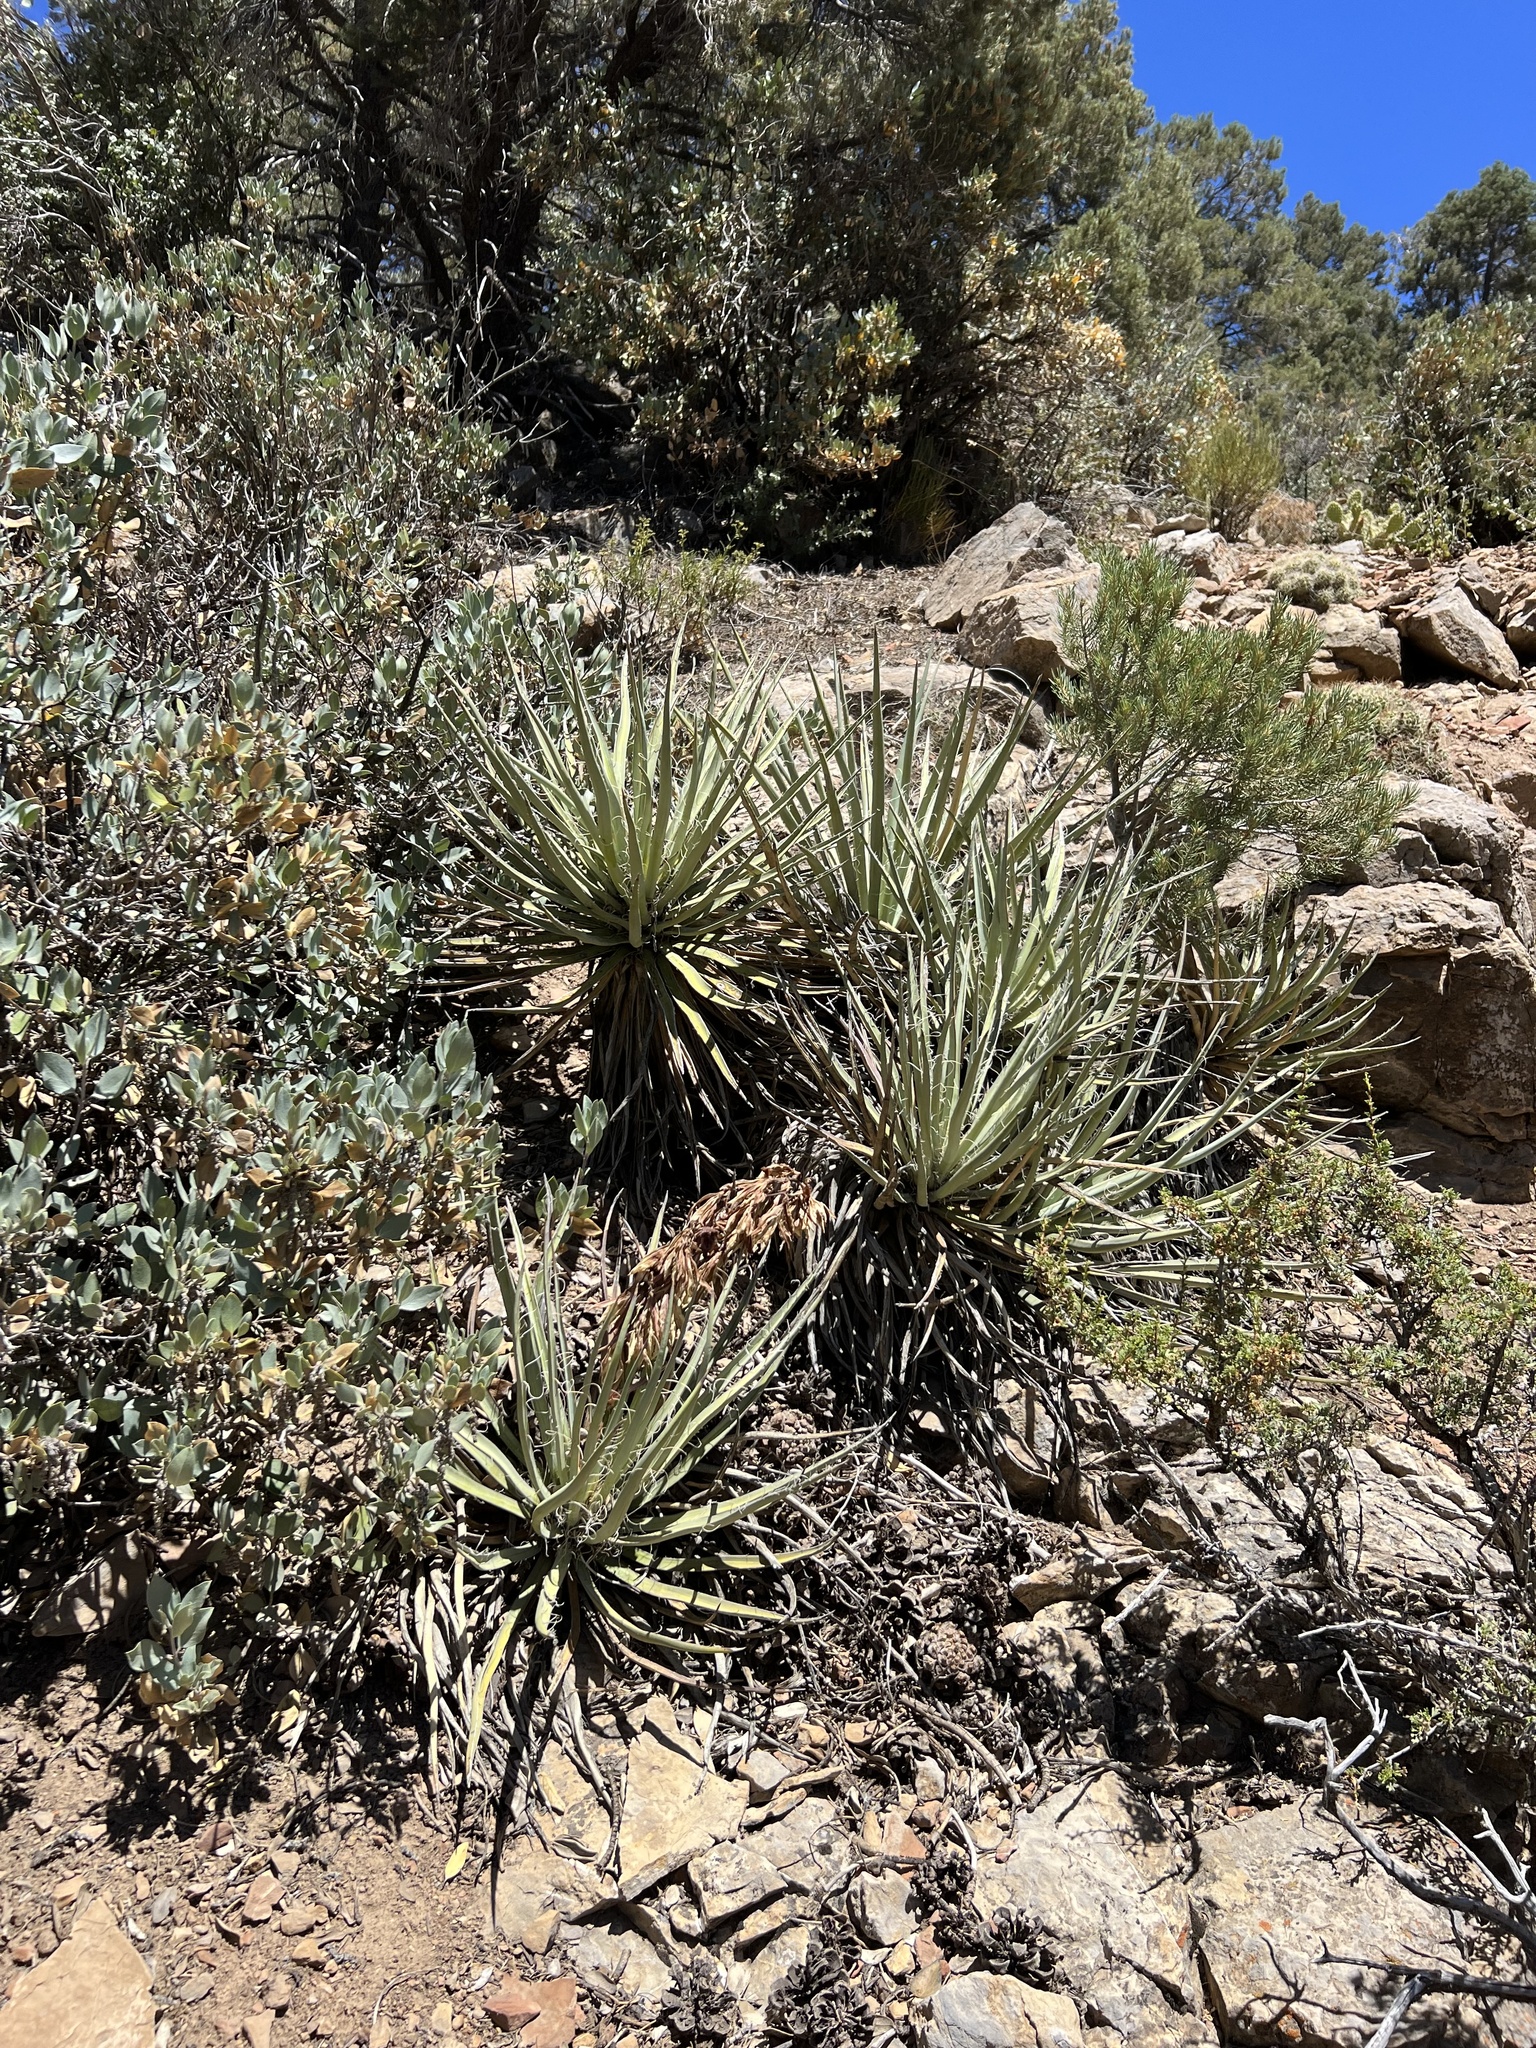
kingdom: Plantae
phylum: Tracheophyta
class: Liliopsida
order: Asparagales
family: Asparagaceae
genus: Yucca
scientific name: Yucca baccata
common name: Banana yucca
